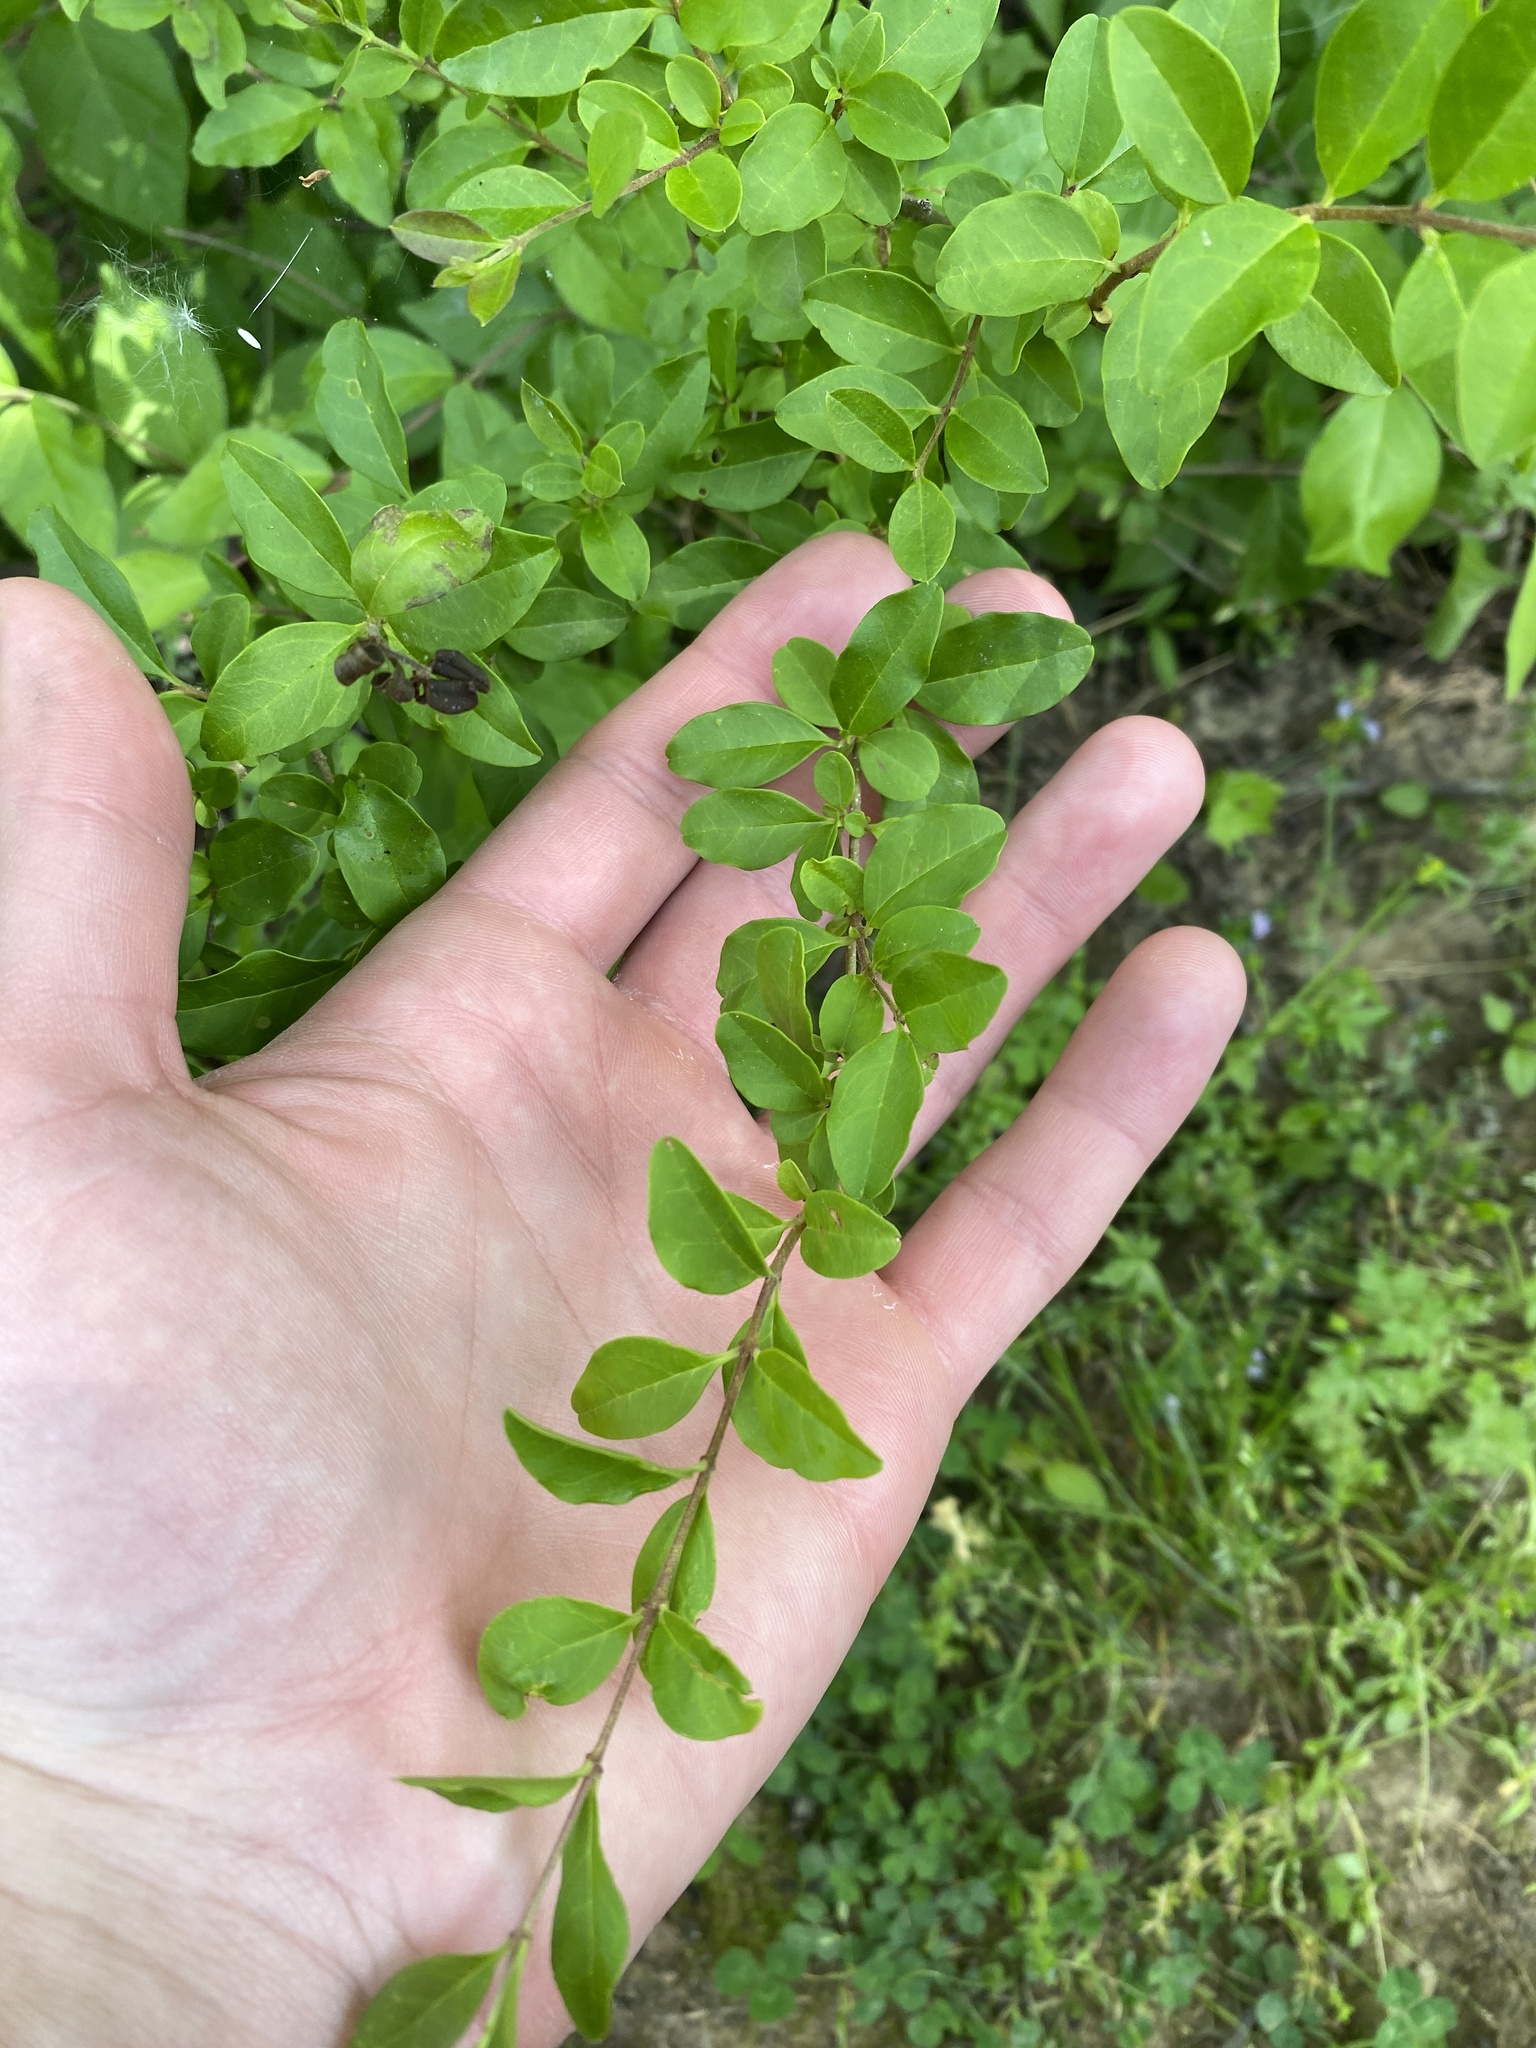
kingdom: Plantae
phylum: Tracheophyta
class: Magnoliopsida
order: Lamiales
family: Oleaceae
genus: Ligustrum
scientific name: Ligustrum sinense
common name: Chinese privet
